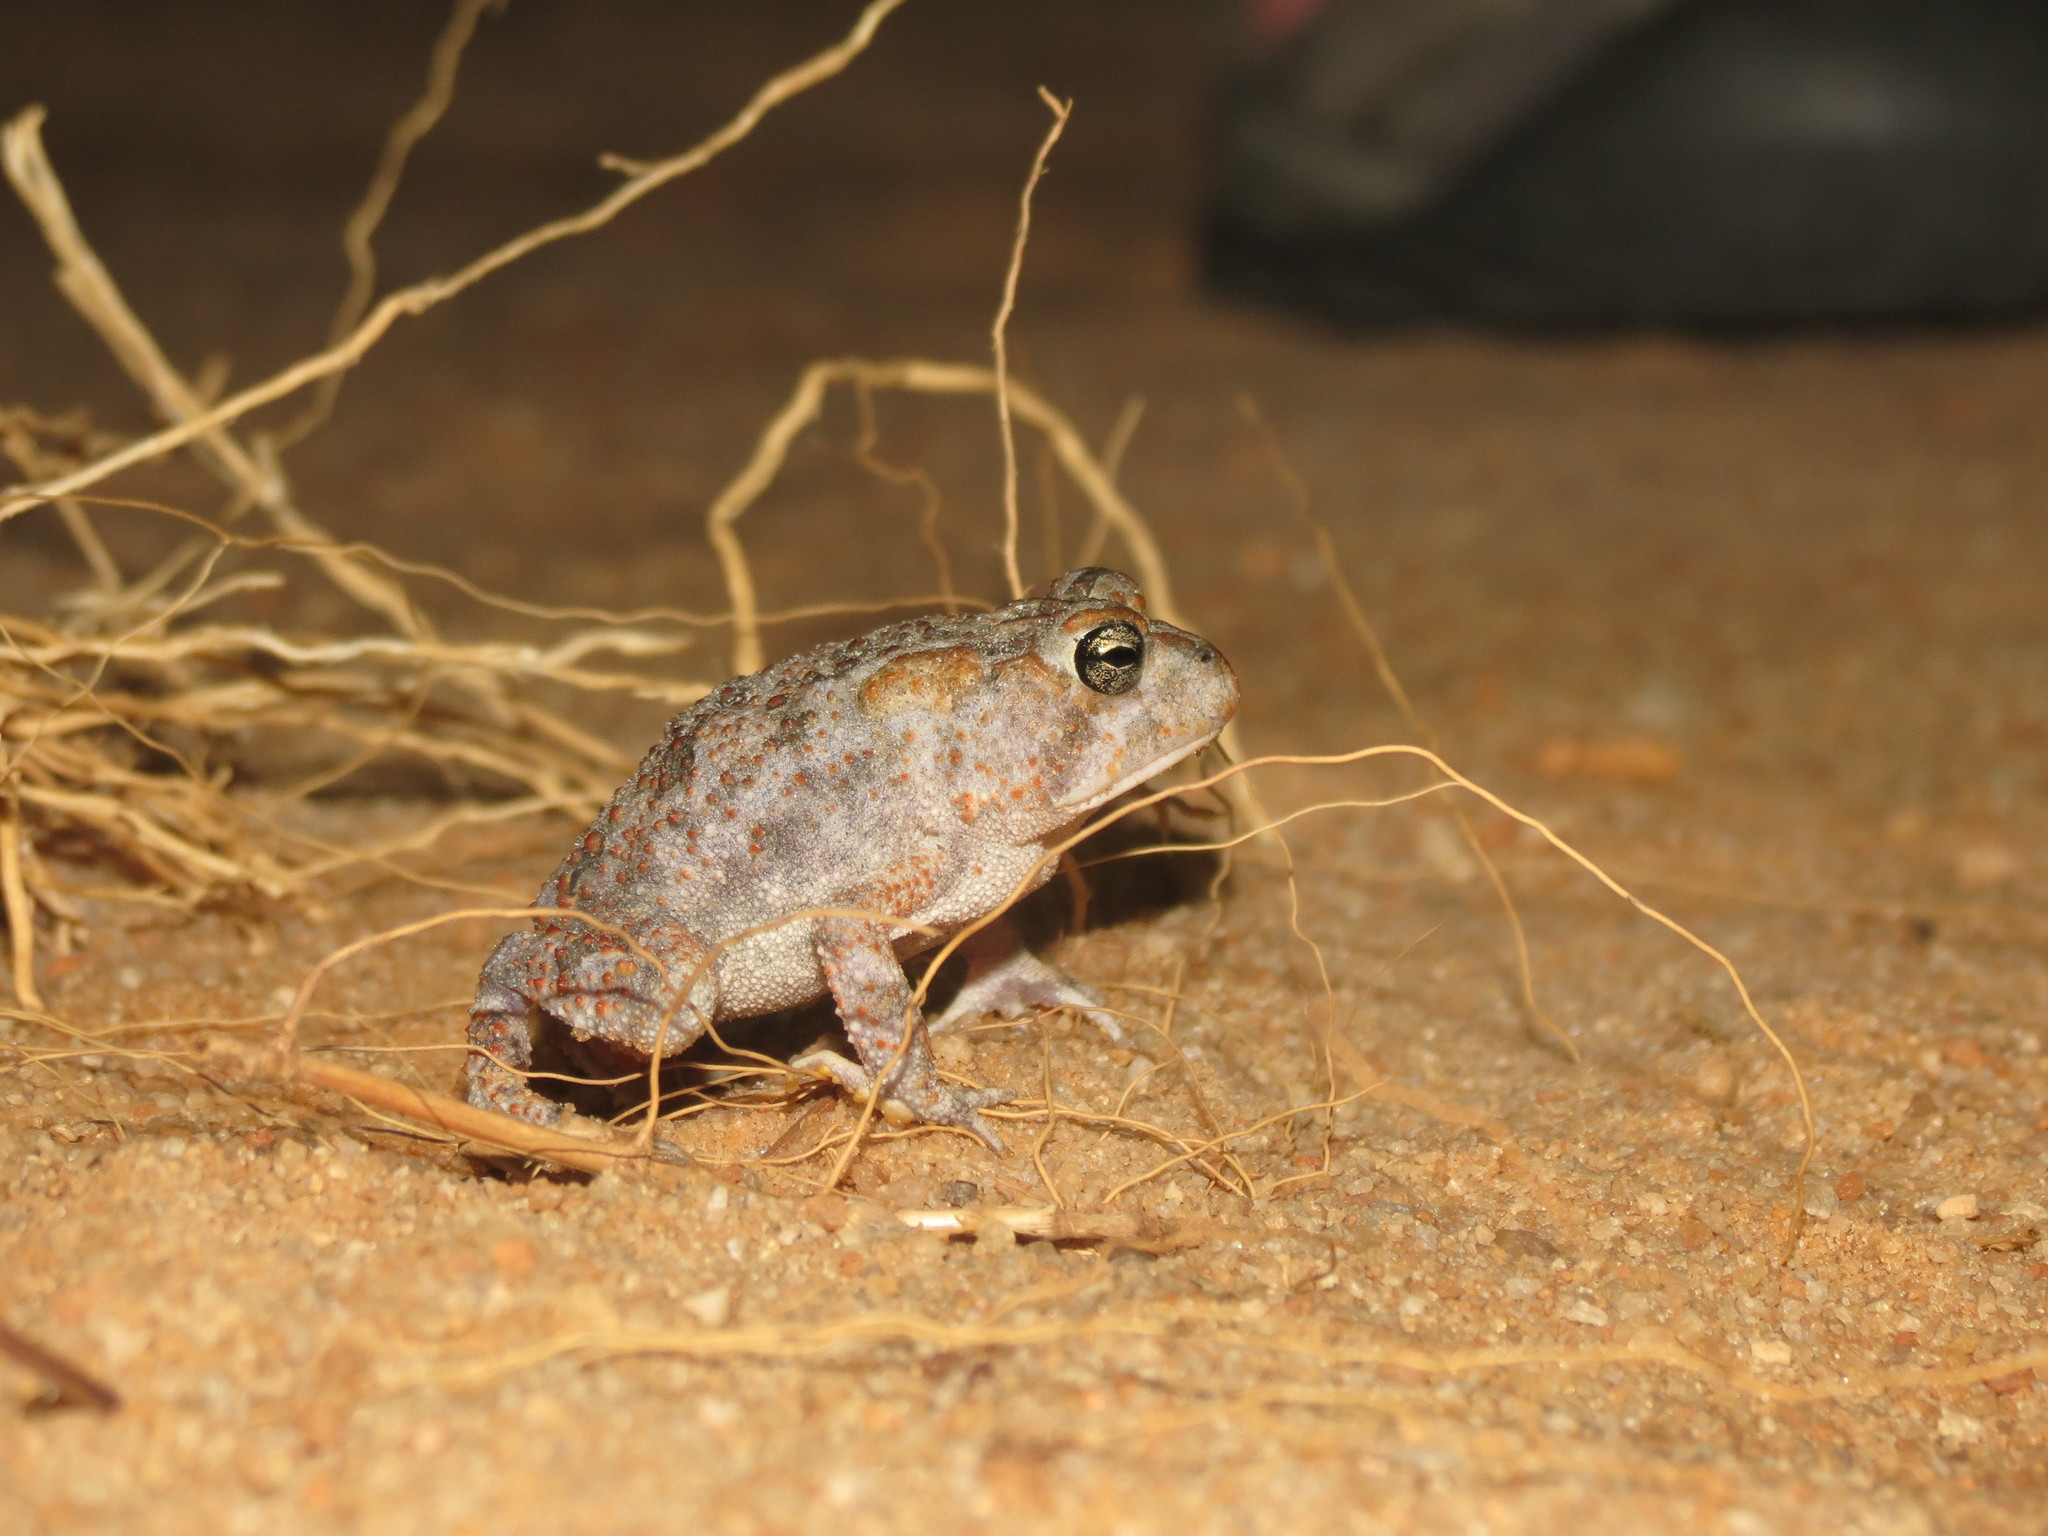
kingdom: Animalia
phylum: Chordata
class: Amphibia
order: Anura
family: Bufonidae
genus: Anaxyrus
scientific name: Anaxyrus terrestris
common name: Southern toad
